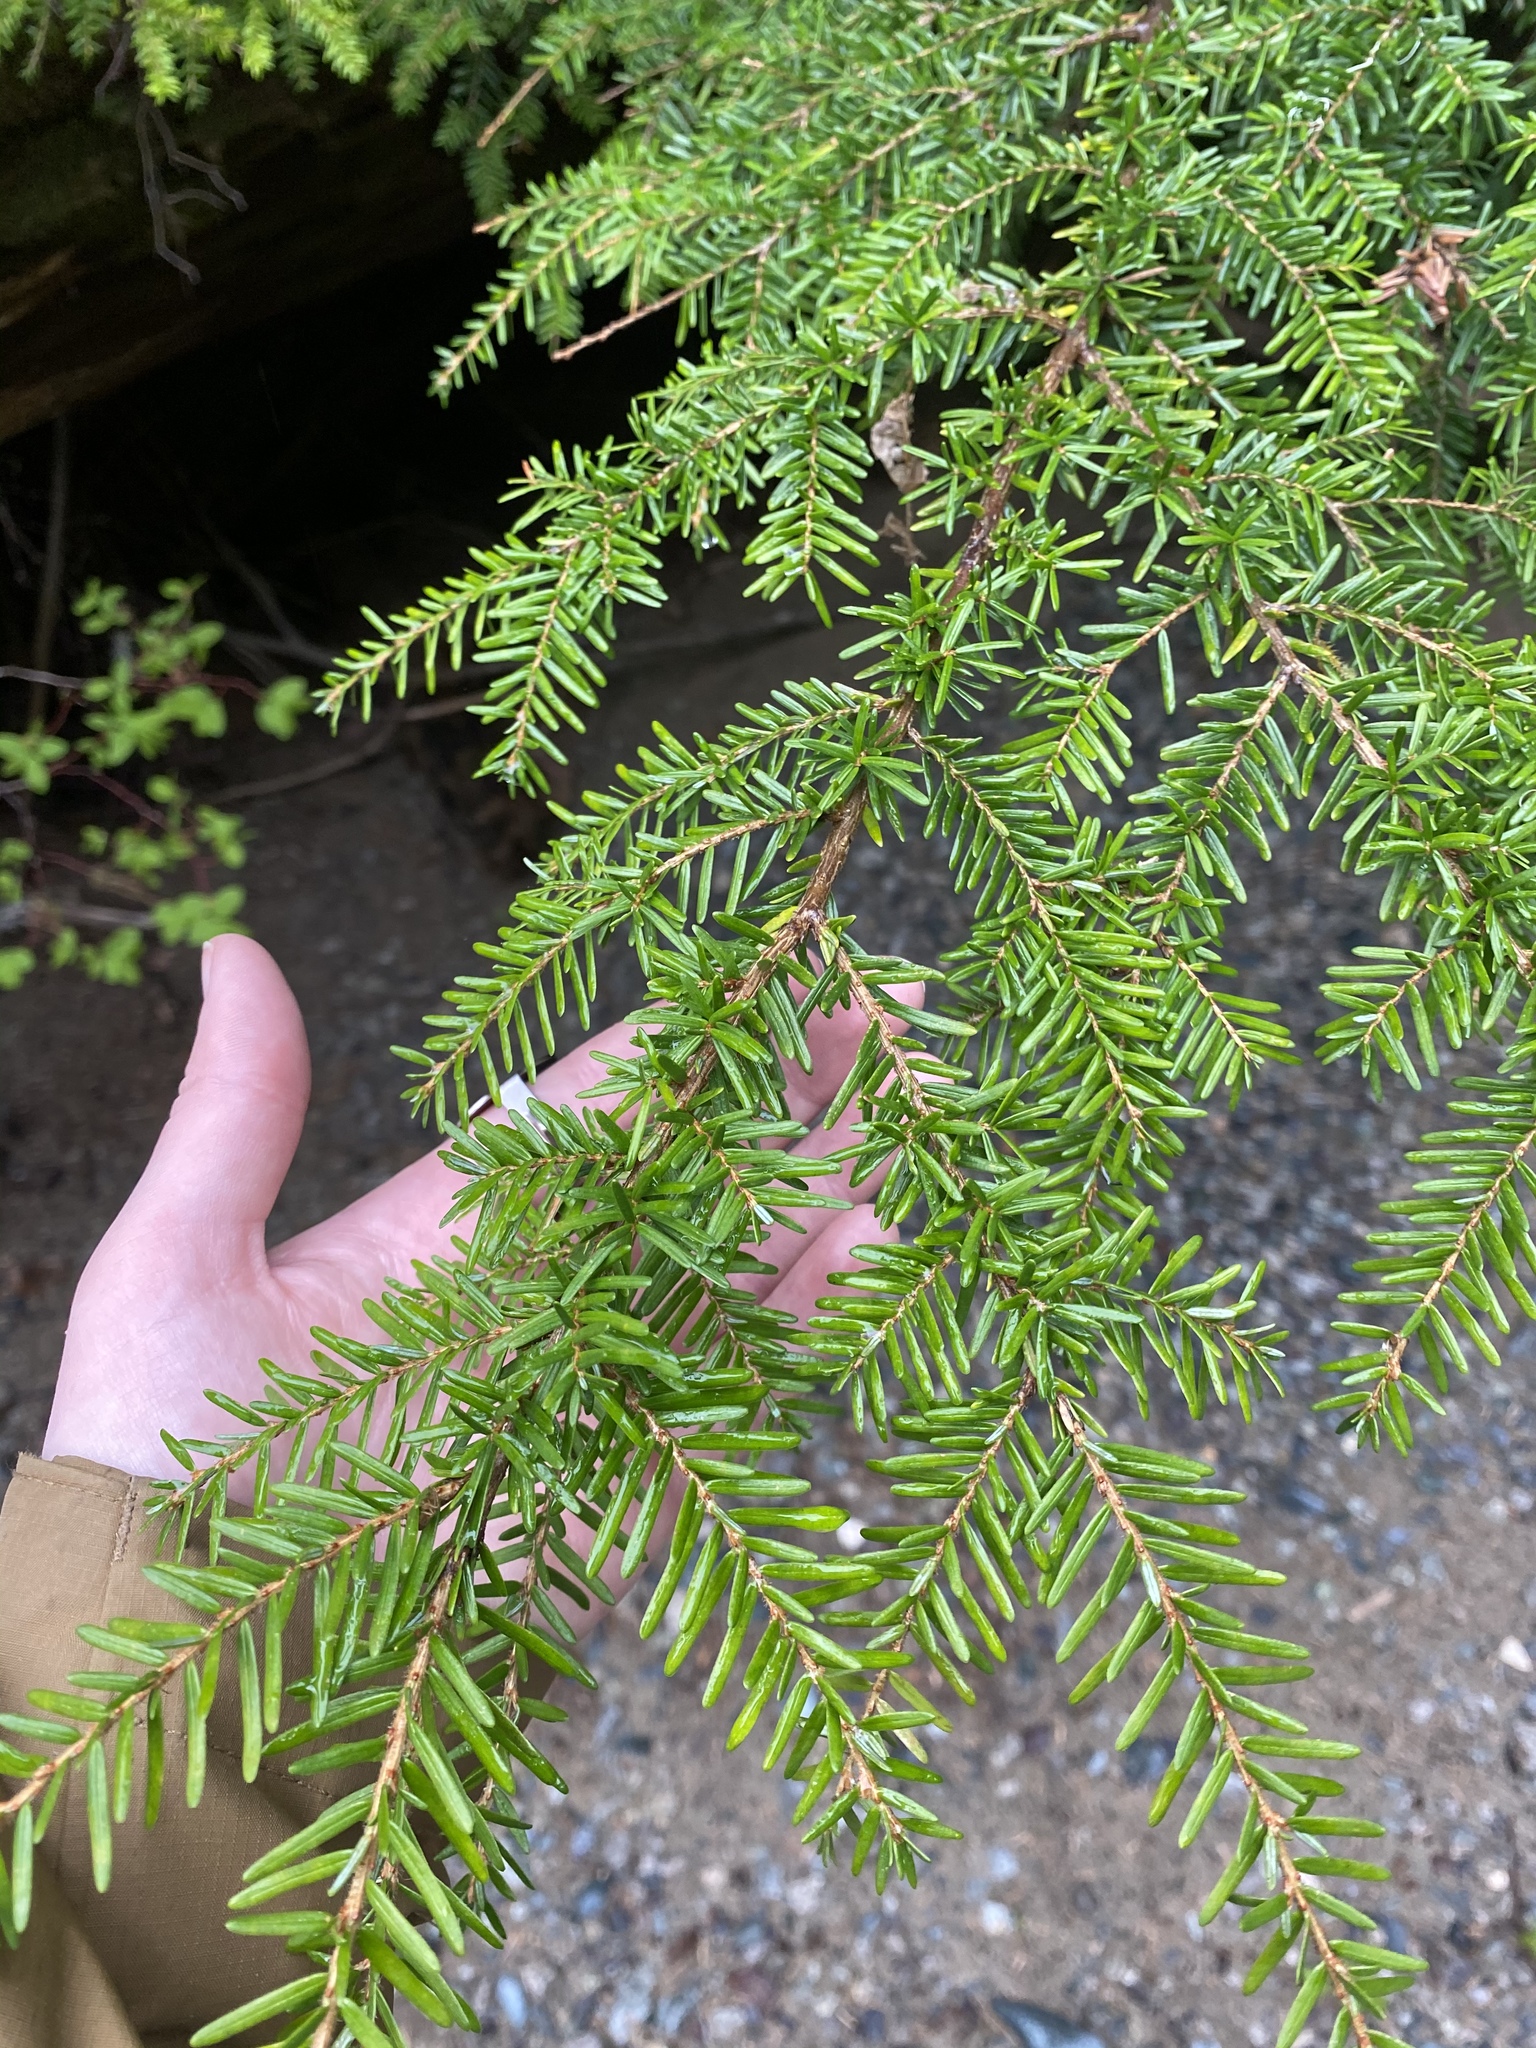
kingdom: Plantae
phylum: Tracheophyta
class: Pinopsida
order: Pinales
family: Pinaceae
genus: Tsuga
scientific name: Tsuga heterophylla
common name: Western hemlock
